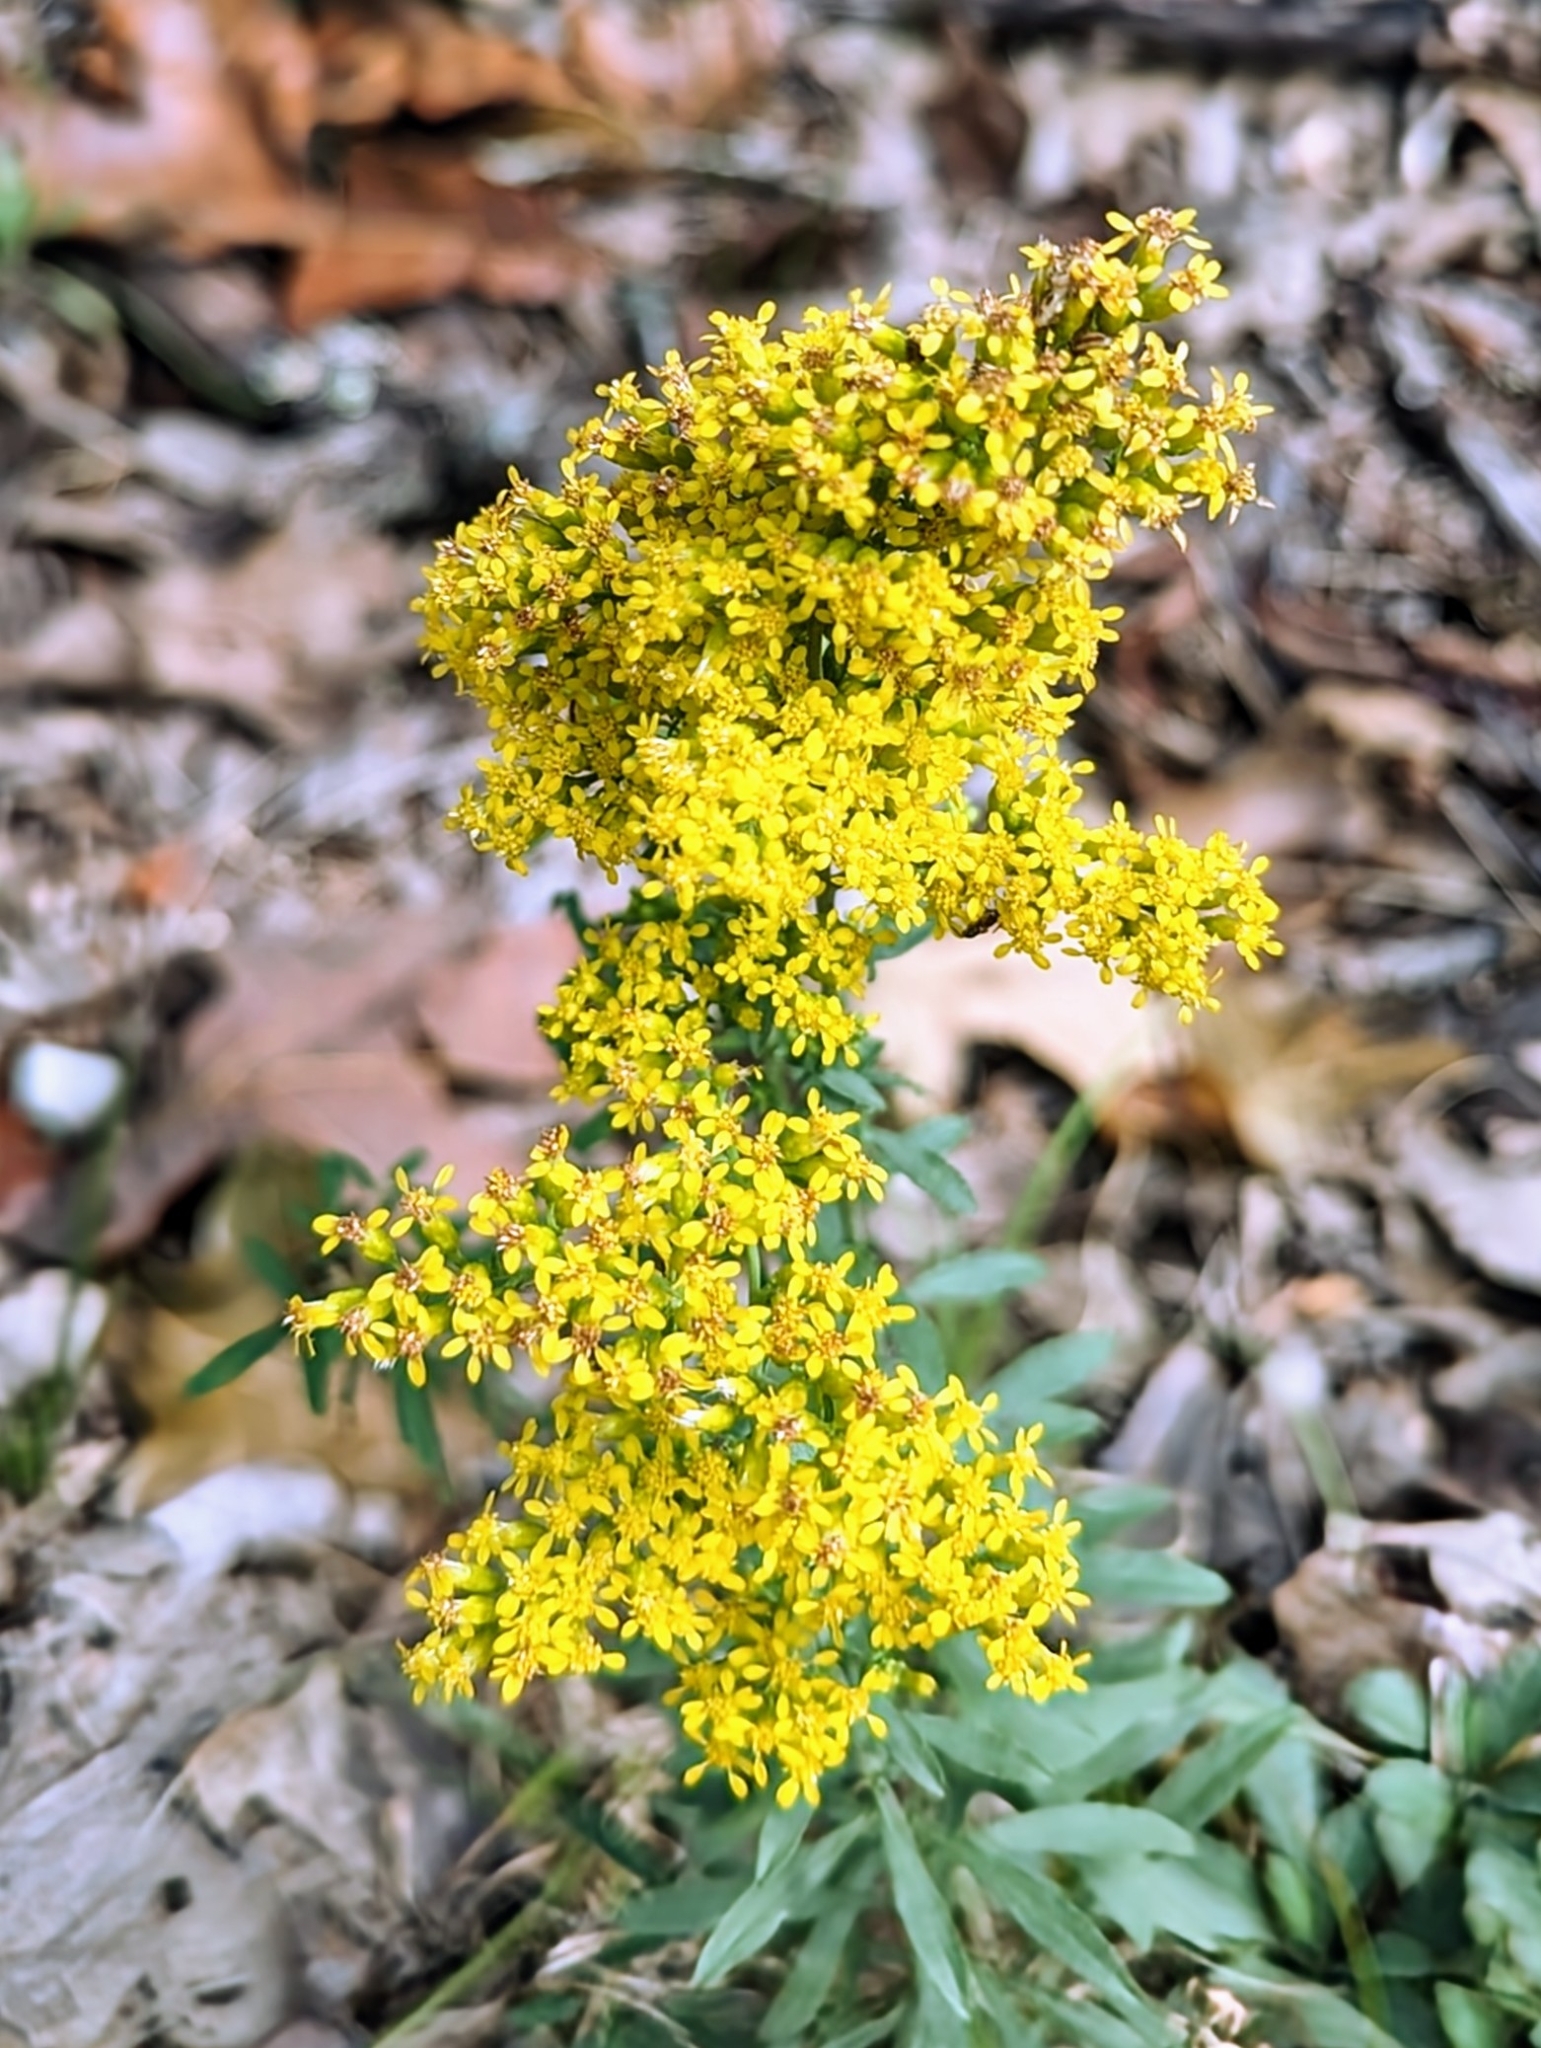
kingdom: Plantae
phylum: Tracheophyta
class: Magnoliopsida
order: Asterales
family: Asteraceae
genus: Solidago
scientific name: Solidago nemoralis
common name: Grey goldenrod
